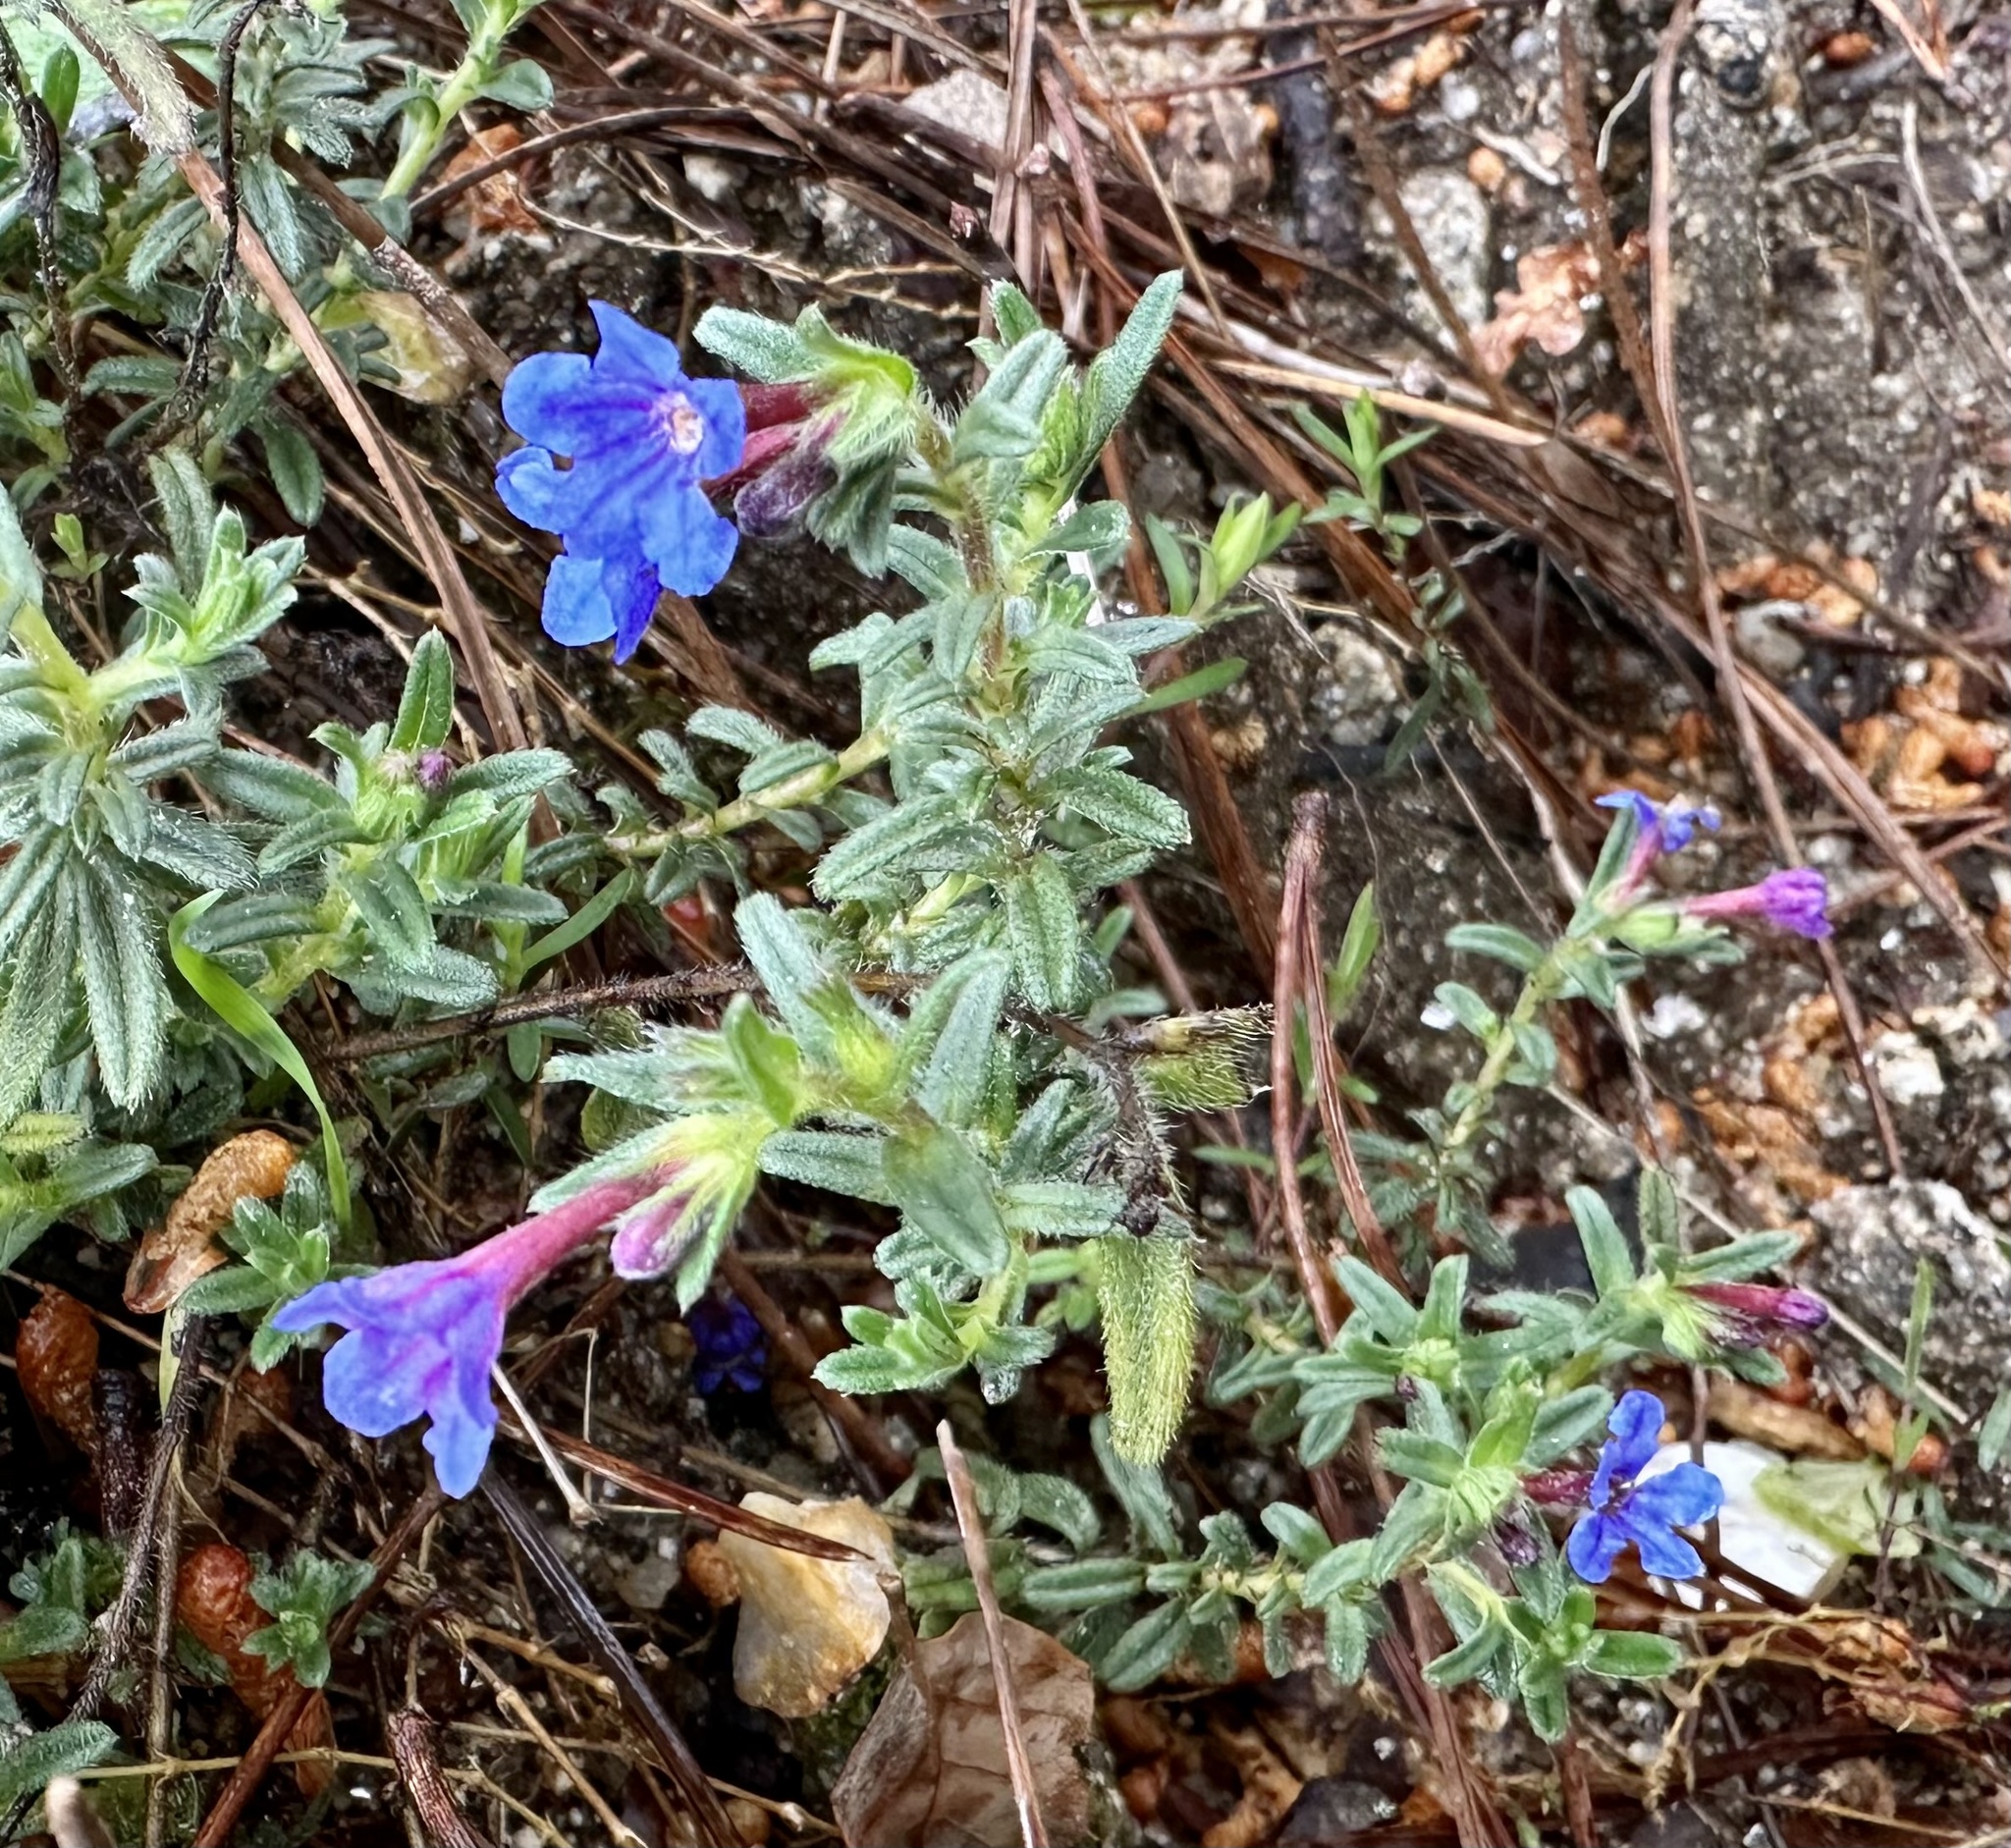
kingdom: Plantae
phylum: Tracheophyta
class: Magnoliopsida
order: Boraginales
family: Boraginaceae
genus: Glandora
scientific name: Glandora prostrata
